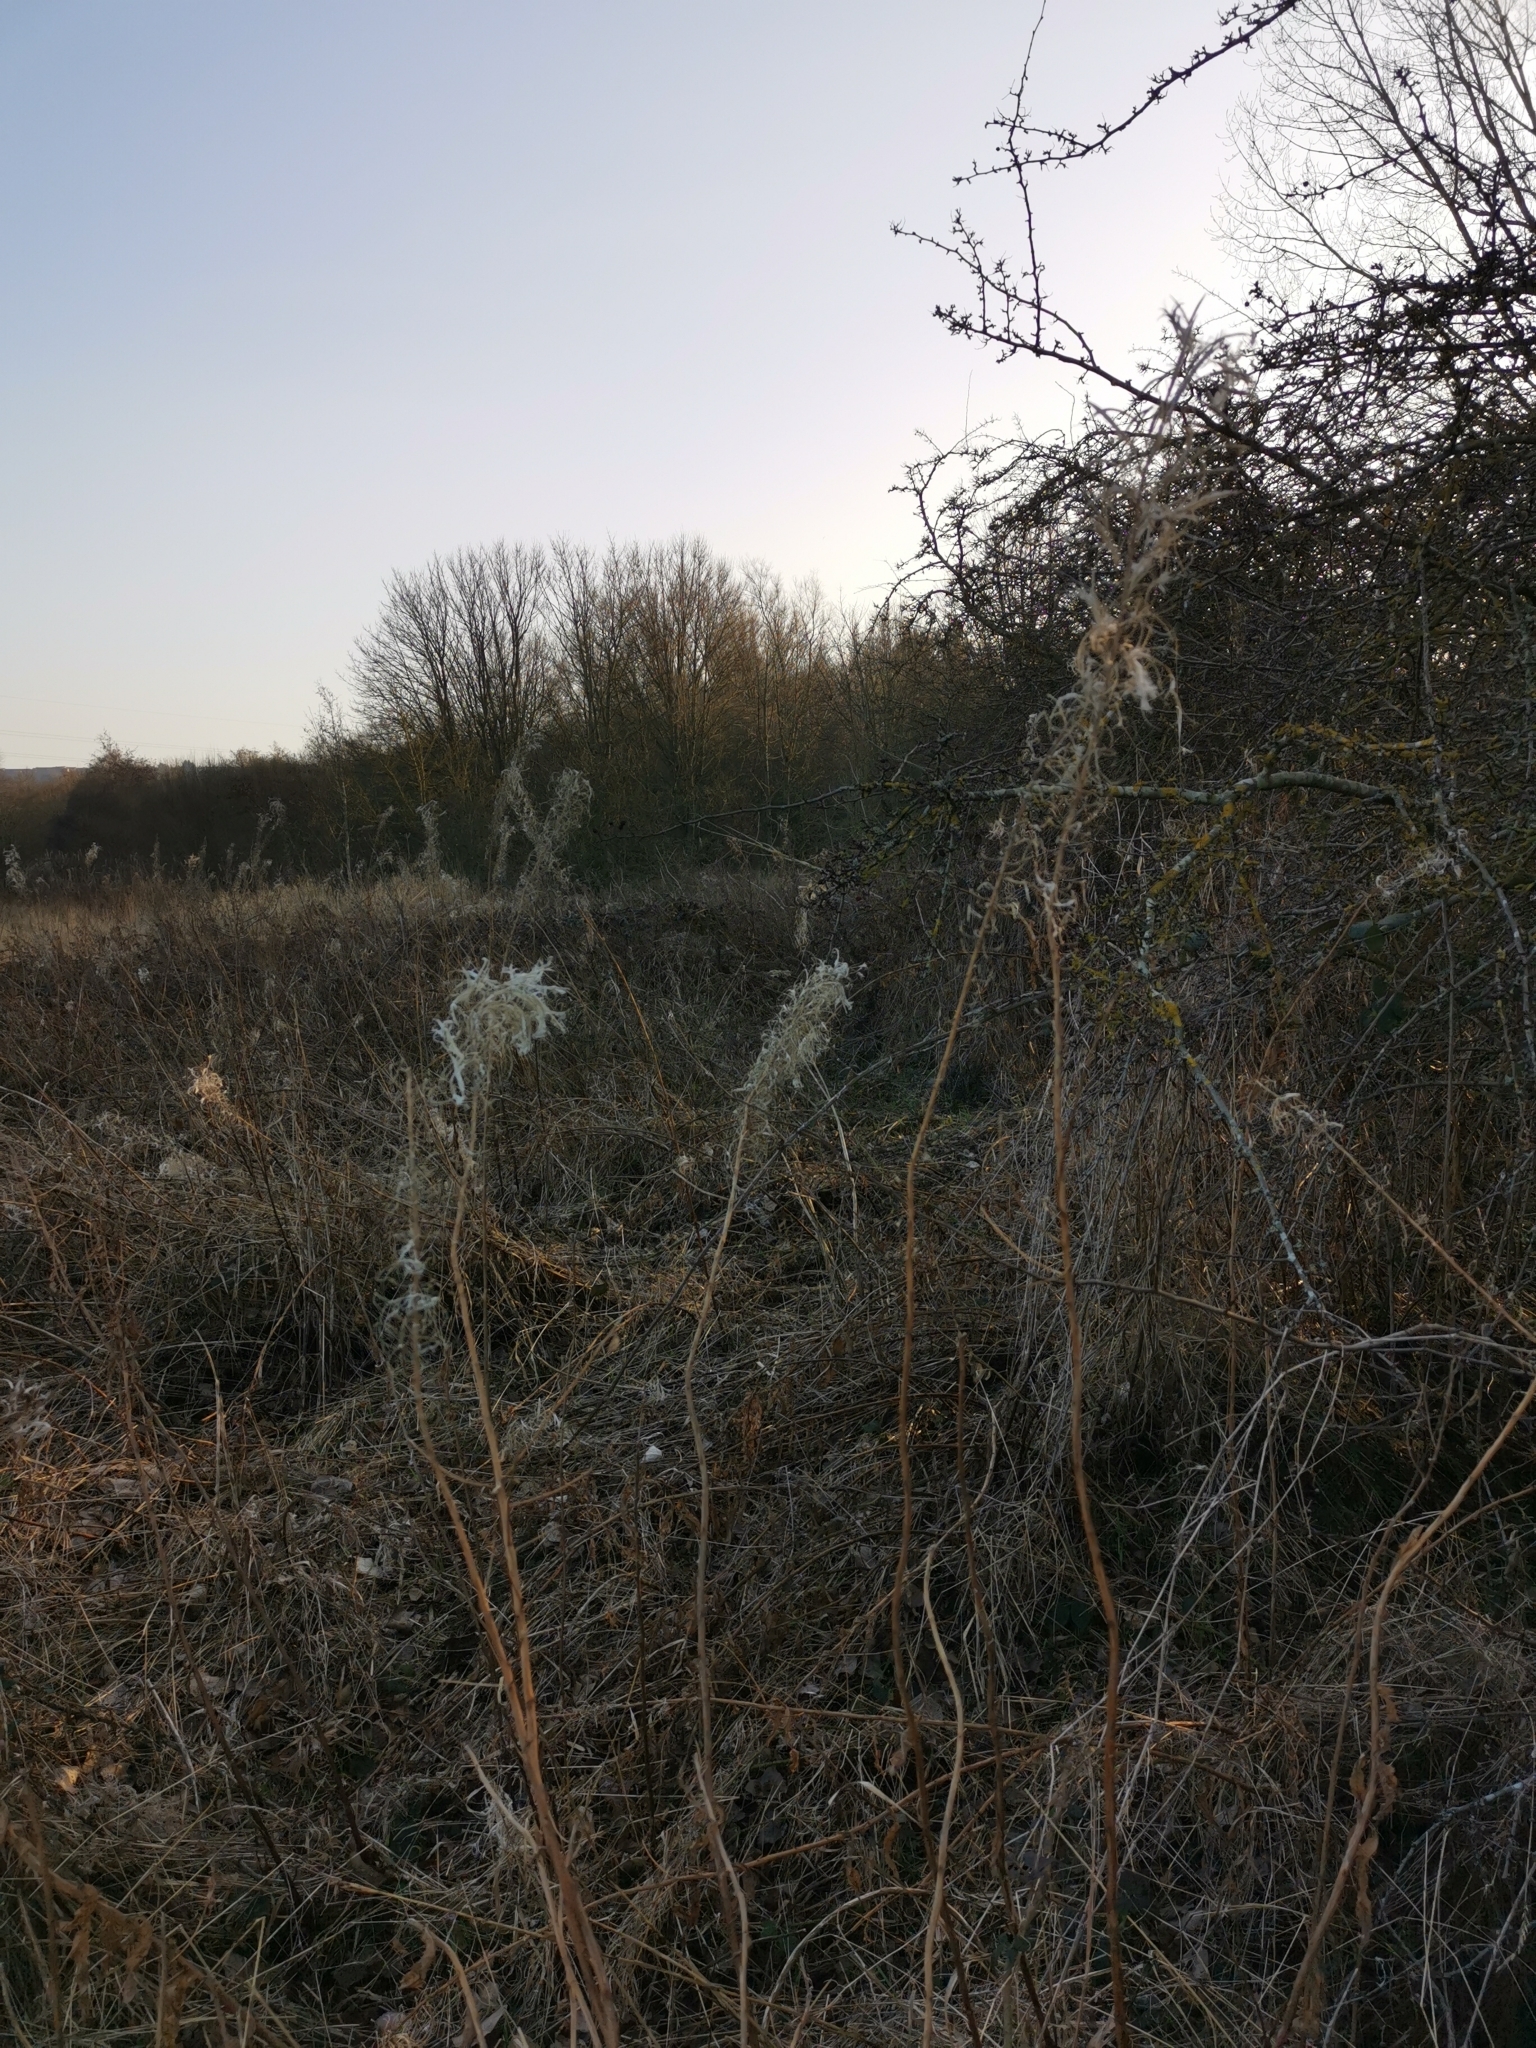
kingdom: Plantae
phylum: Tracheophyta
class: Magnoliopsida
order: Myrtales
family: Onagraceae
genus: Chamaenerion
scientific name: Chamaenerion angustifolium
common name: Fireweed
